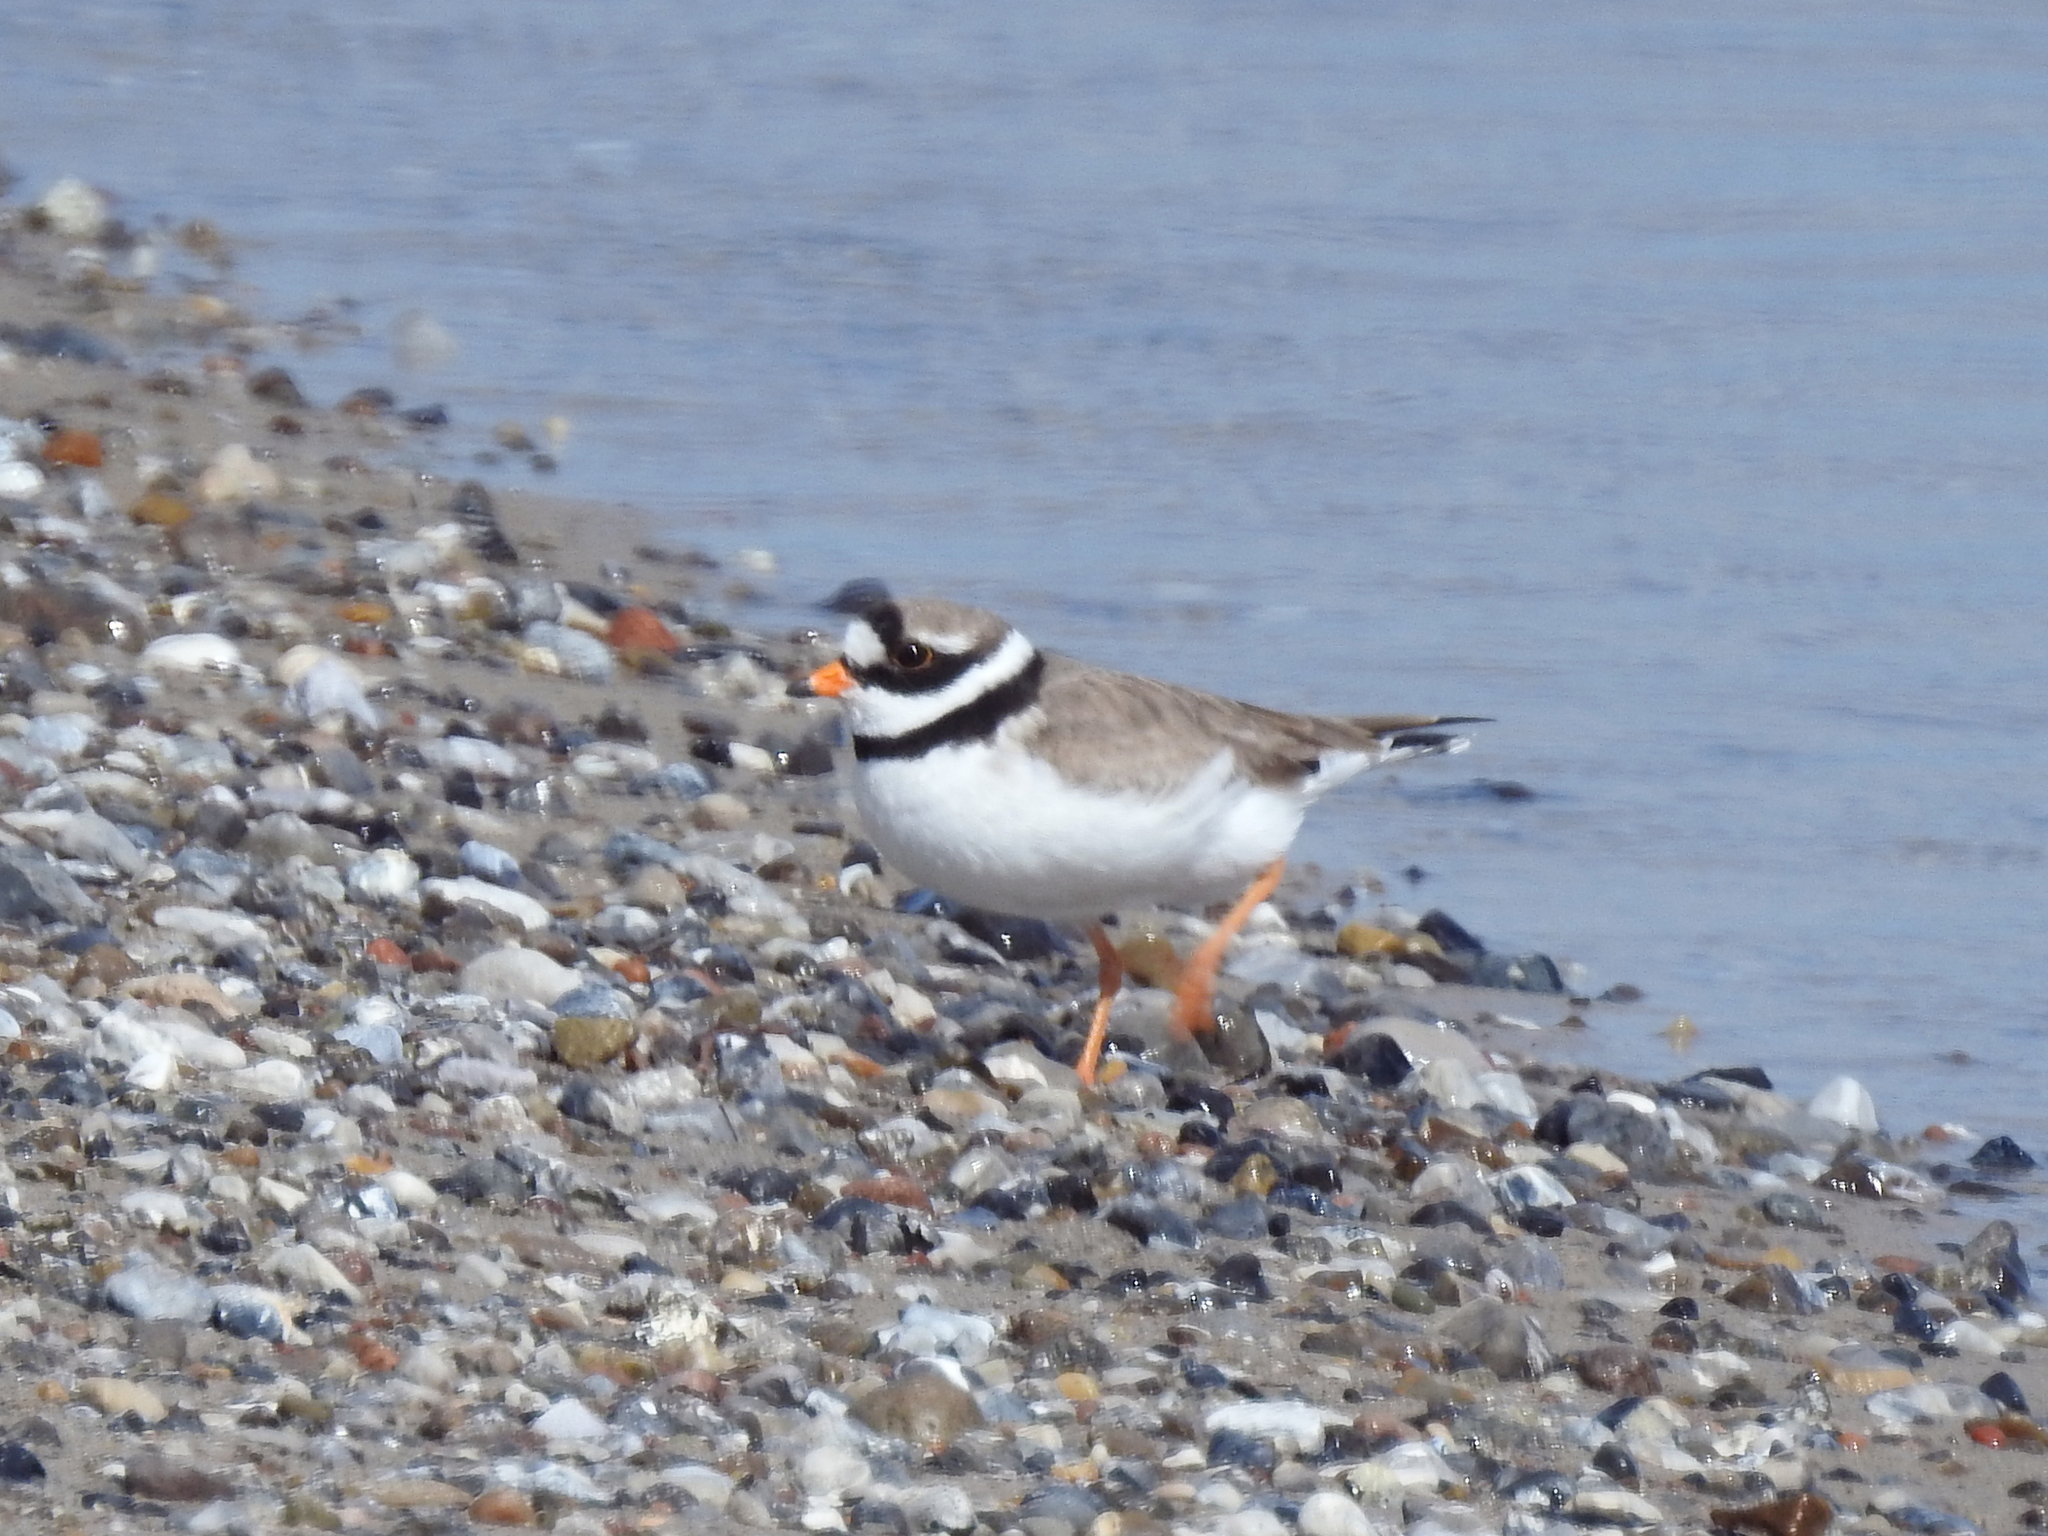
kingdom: Animalia
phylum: Chordata
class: Aves
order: Charadriiformes
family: Charadriidae
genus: Charadrius
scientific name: Charadrius hiaticula
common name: Common ringed plover
